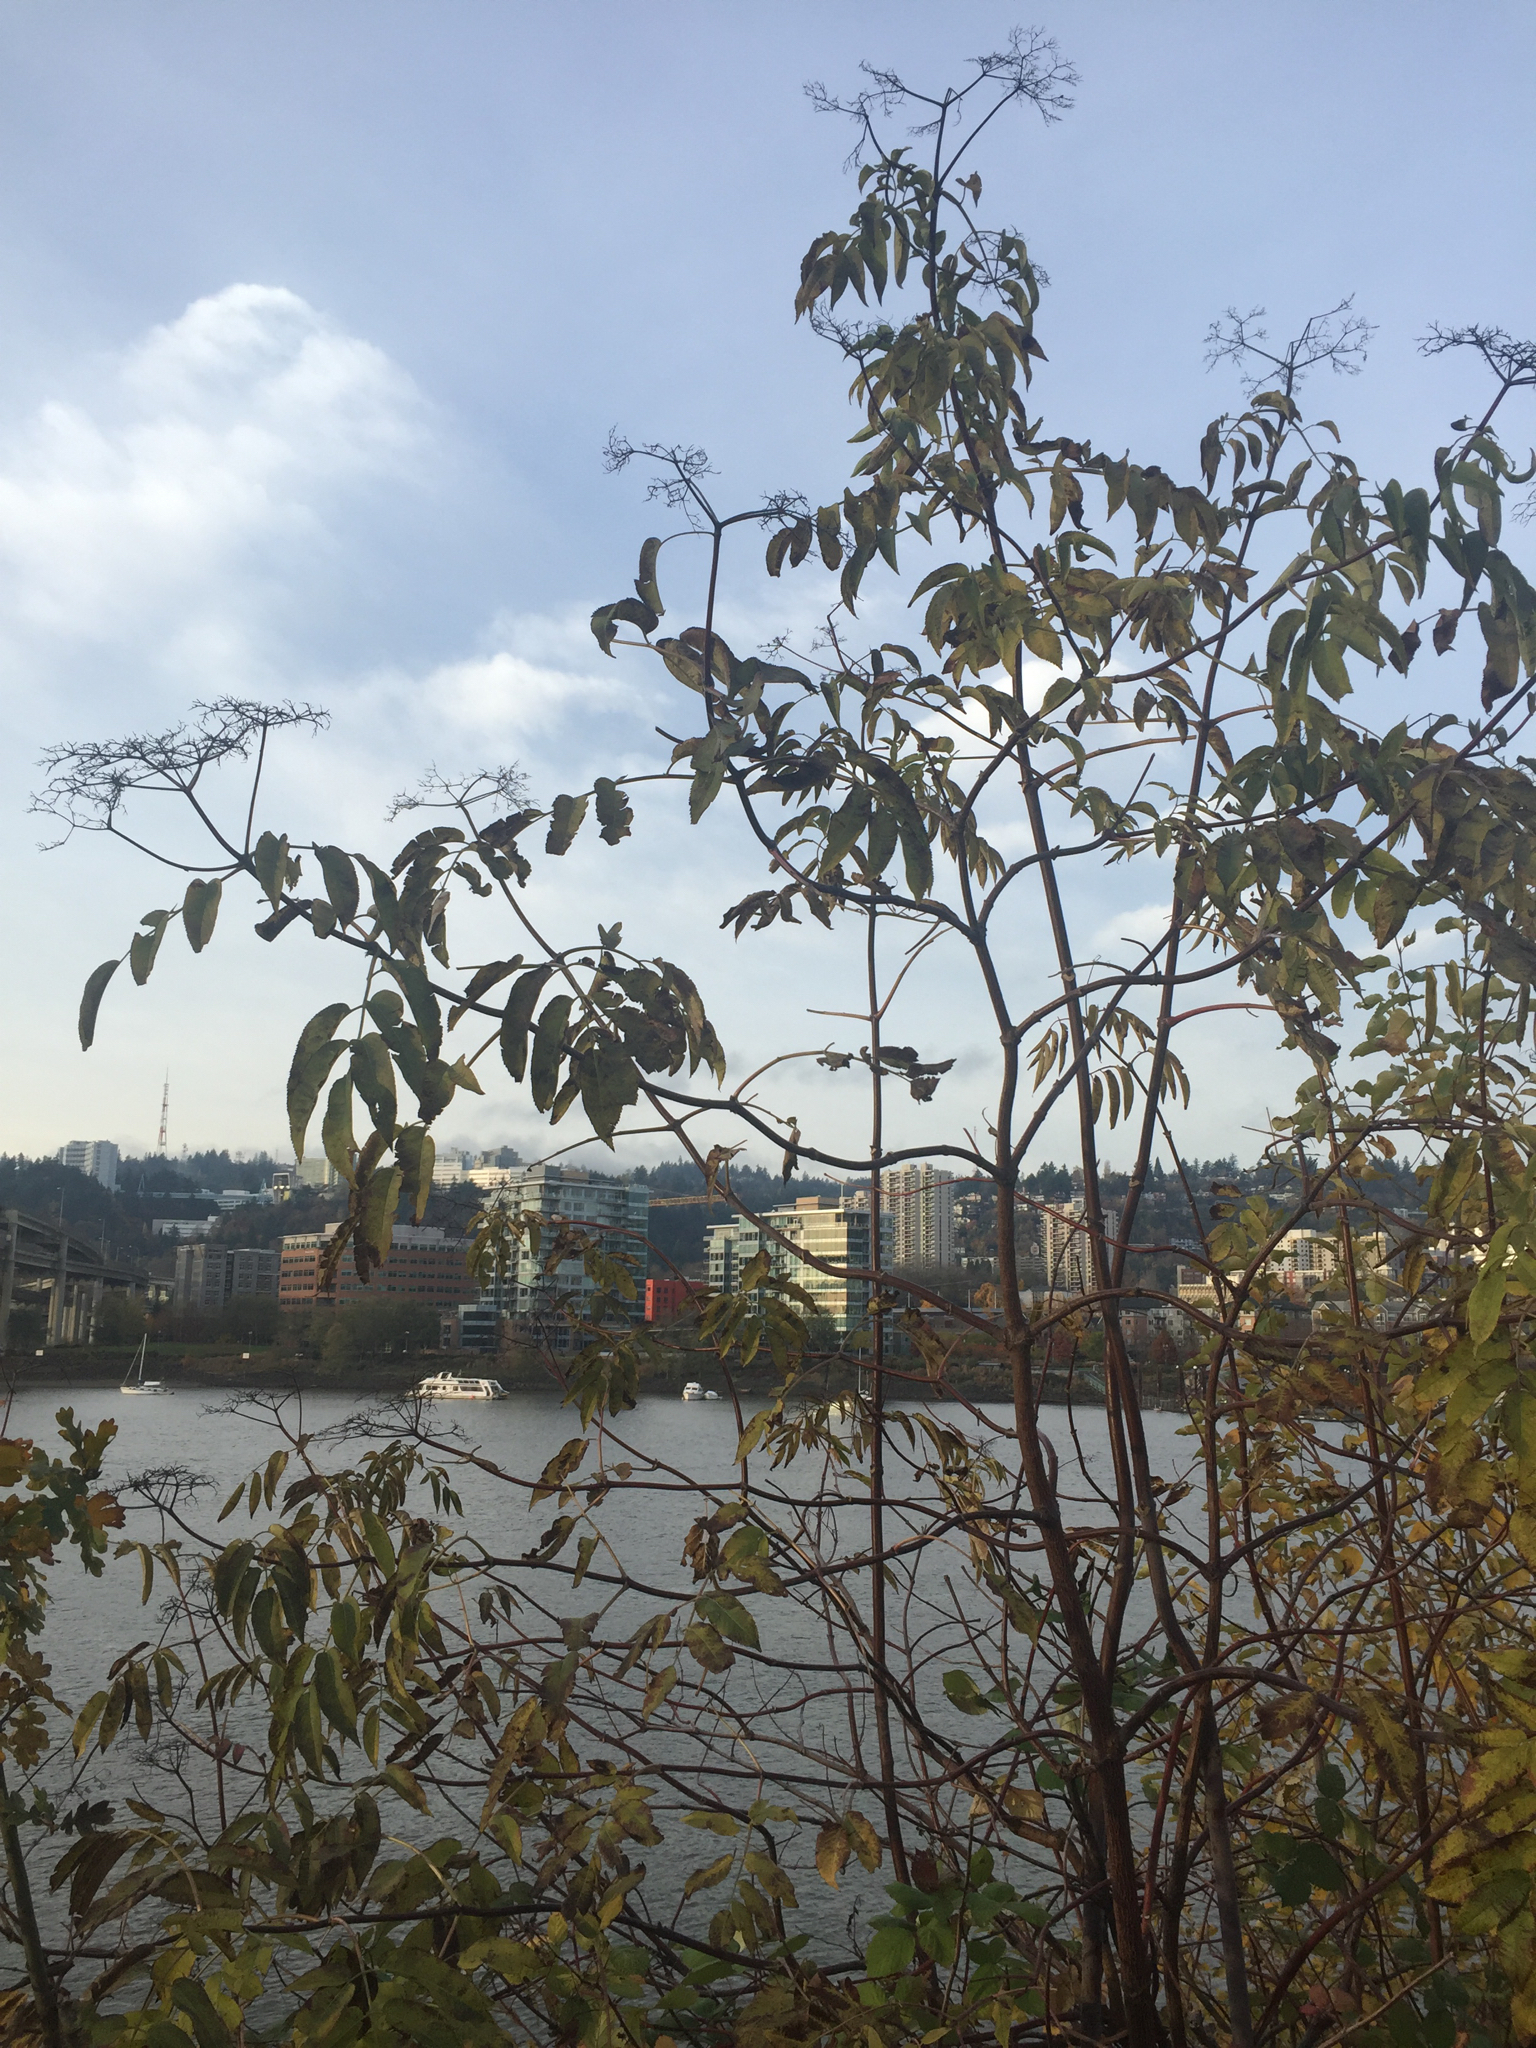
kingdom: Plantae
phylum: Tracheophyta
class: Magnoliopsida
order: Dipsacales
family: Viburnaceae
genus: Sambucus
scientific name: Sambucus cerulea
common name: Blue elder
